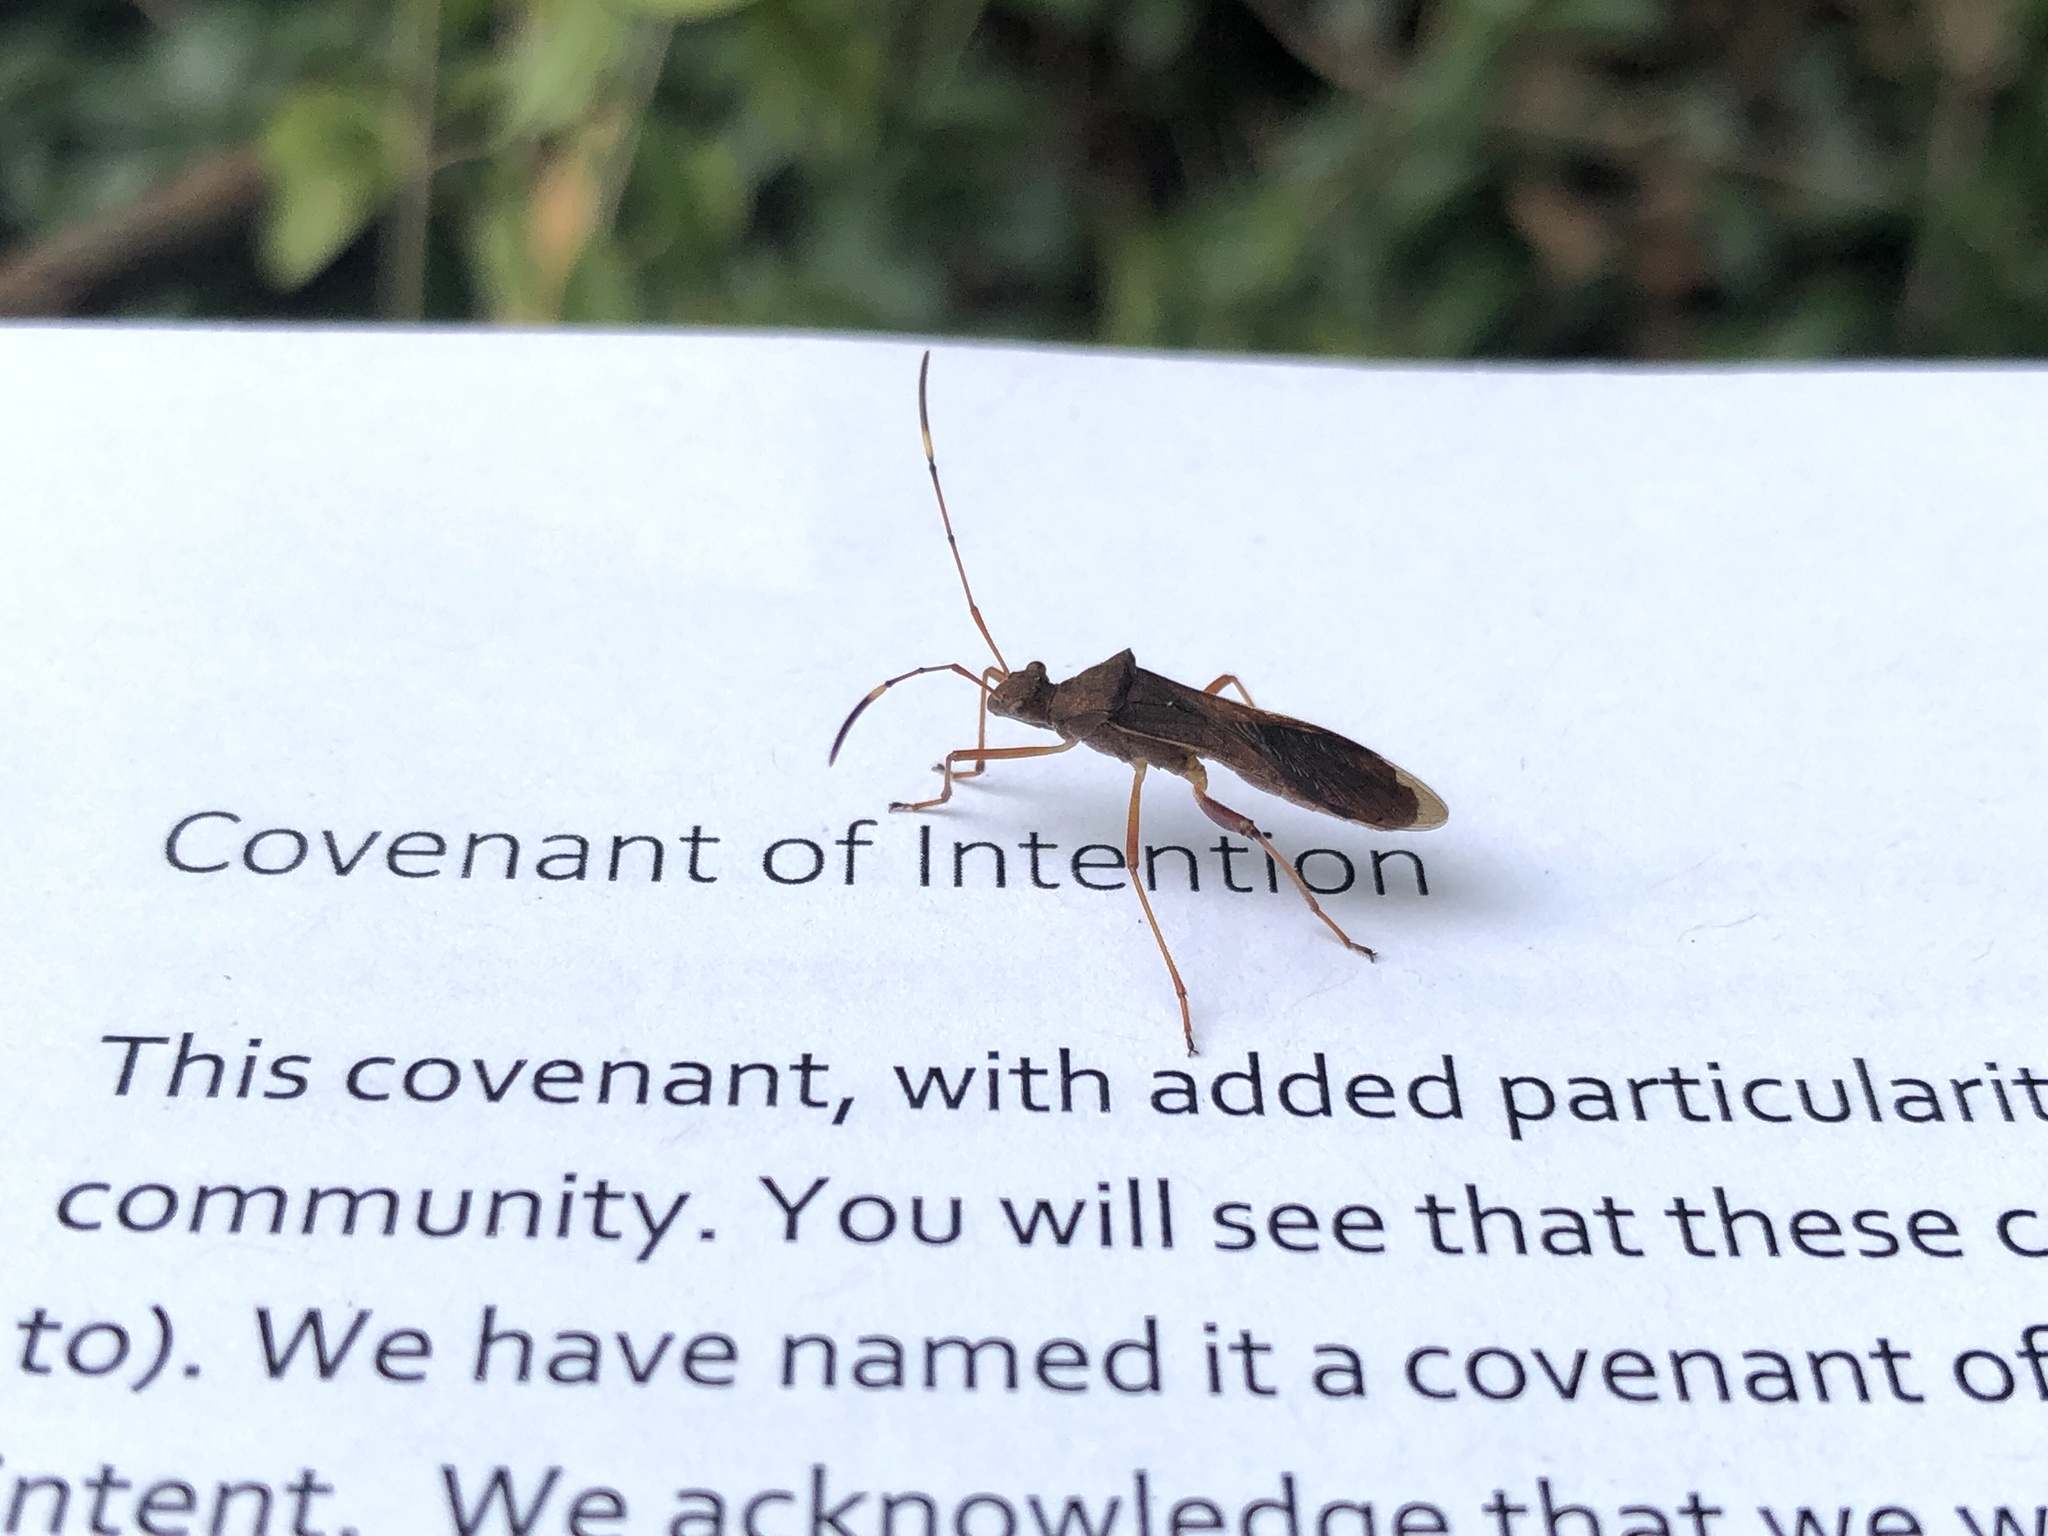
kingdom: Animalia
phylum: Arthropoda
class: Insecta
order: Hemiptera
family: Alydidae
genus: Megalotomus
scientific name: Megalotomus quinquespinosus
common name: Lupine bug
